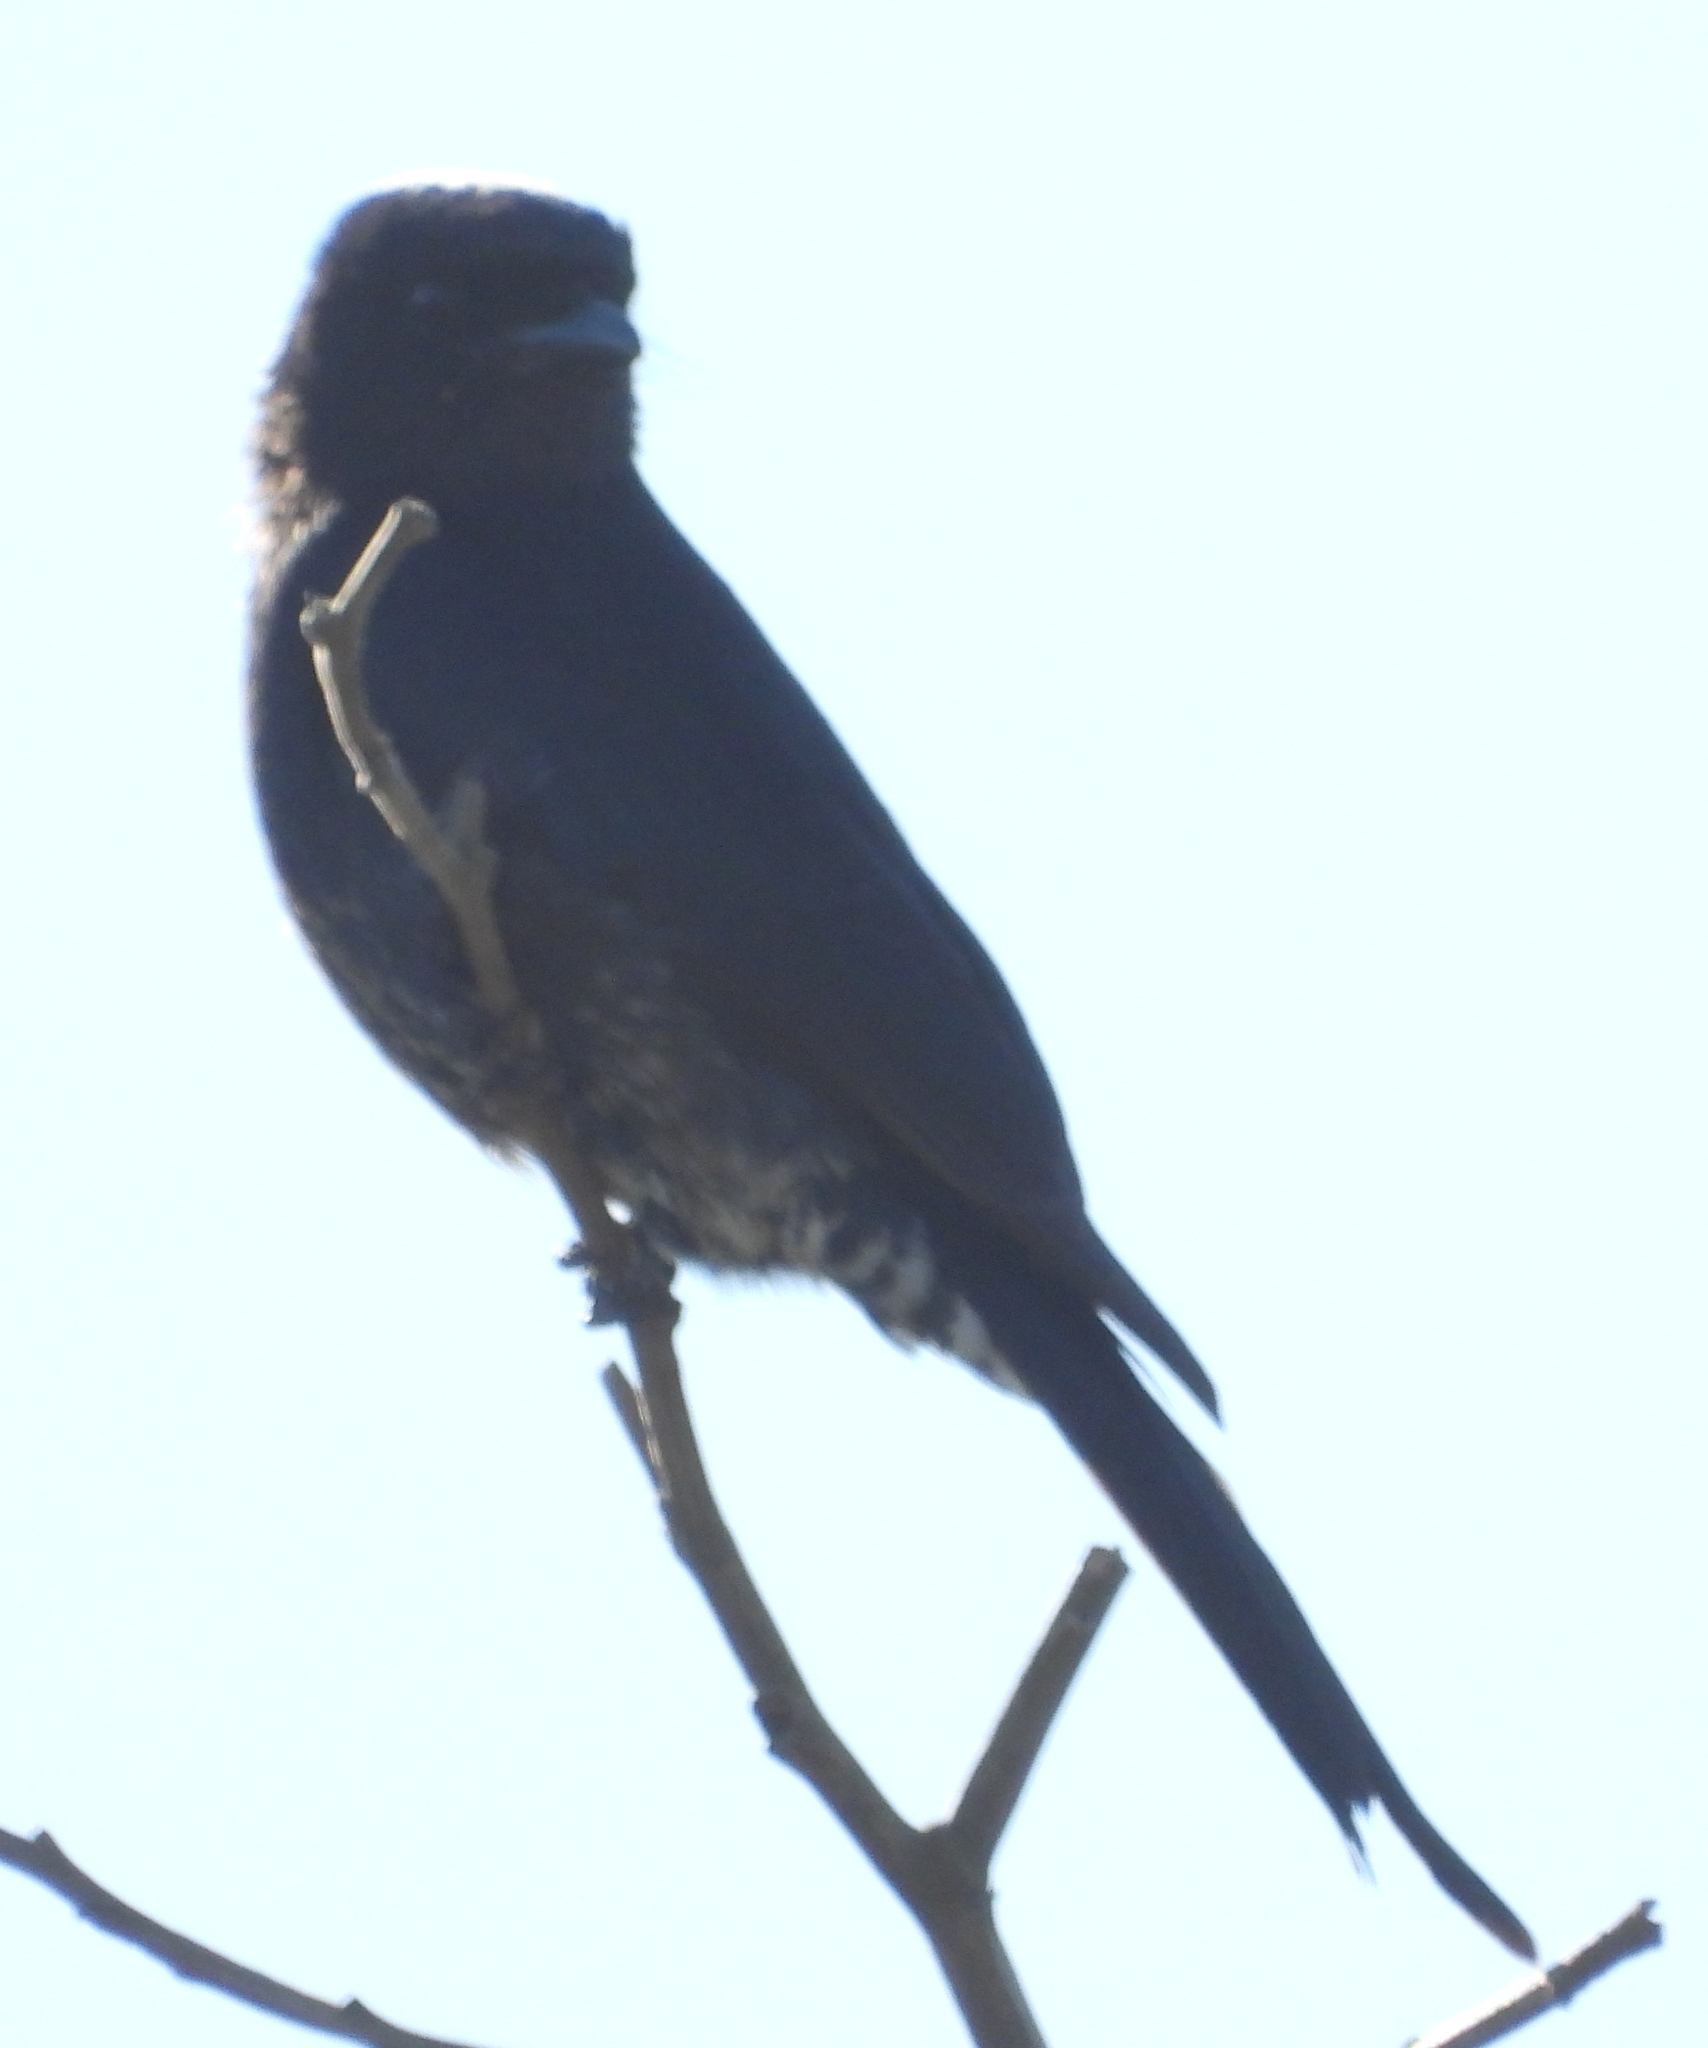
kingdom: Animalia
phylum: Chordata
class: Aves
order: Passeriformes
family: Dicruridae
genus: Dicrurus
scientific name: Dicrurus adsimilis
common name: Fork-tailed drongo
